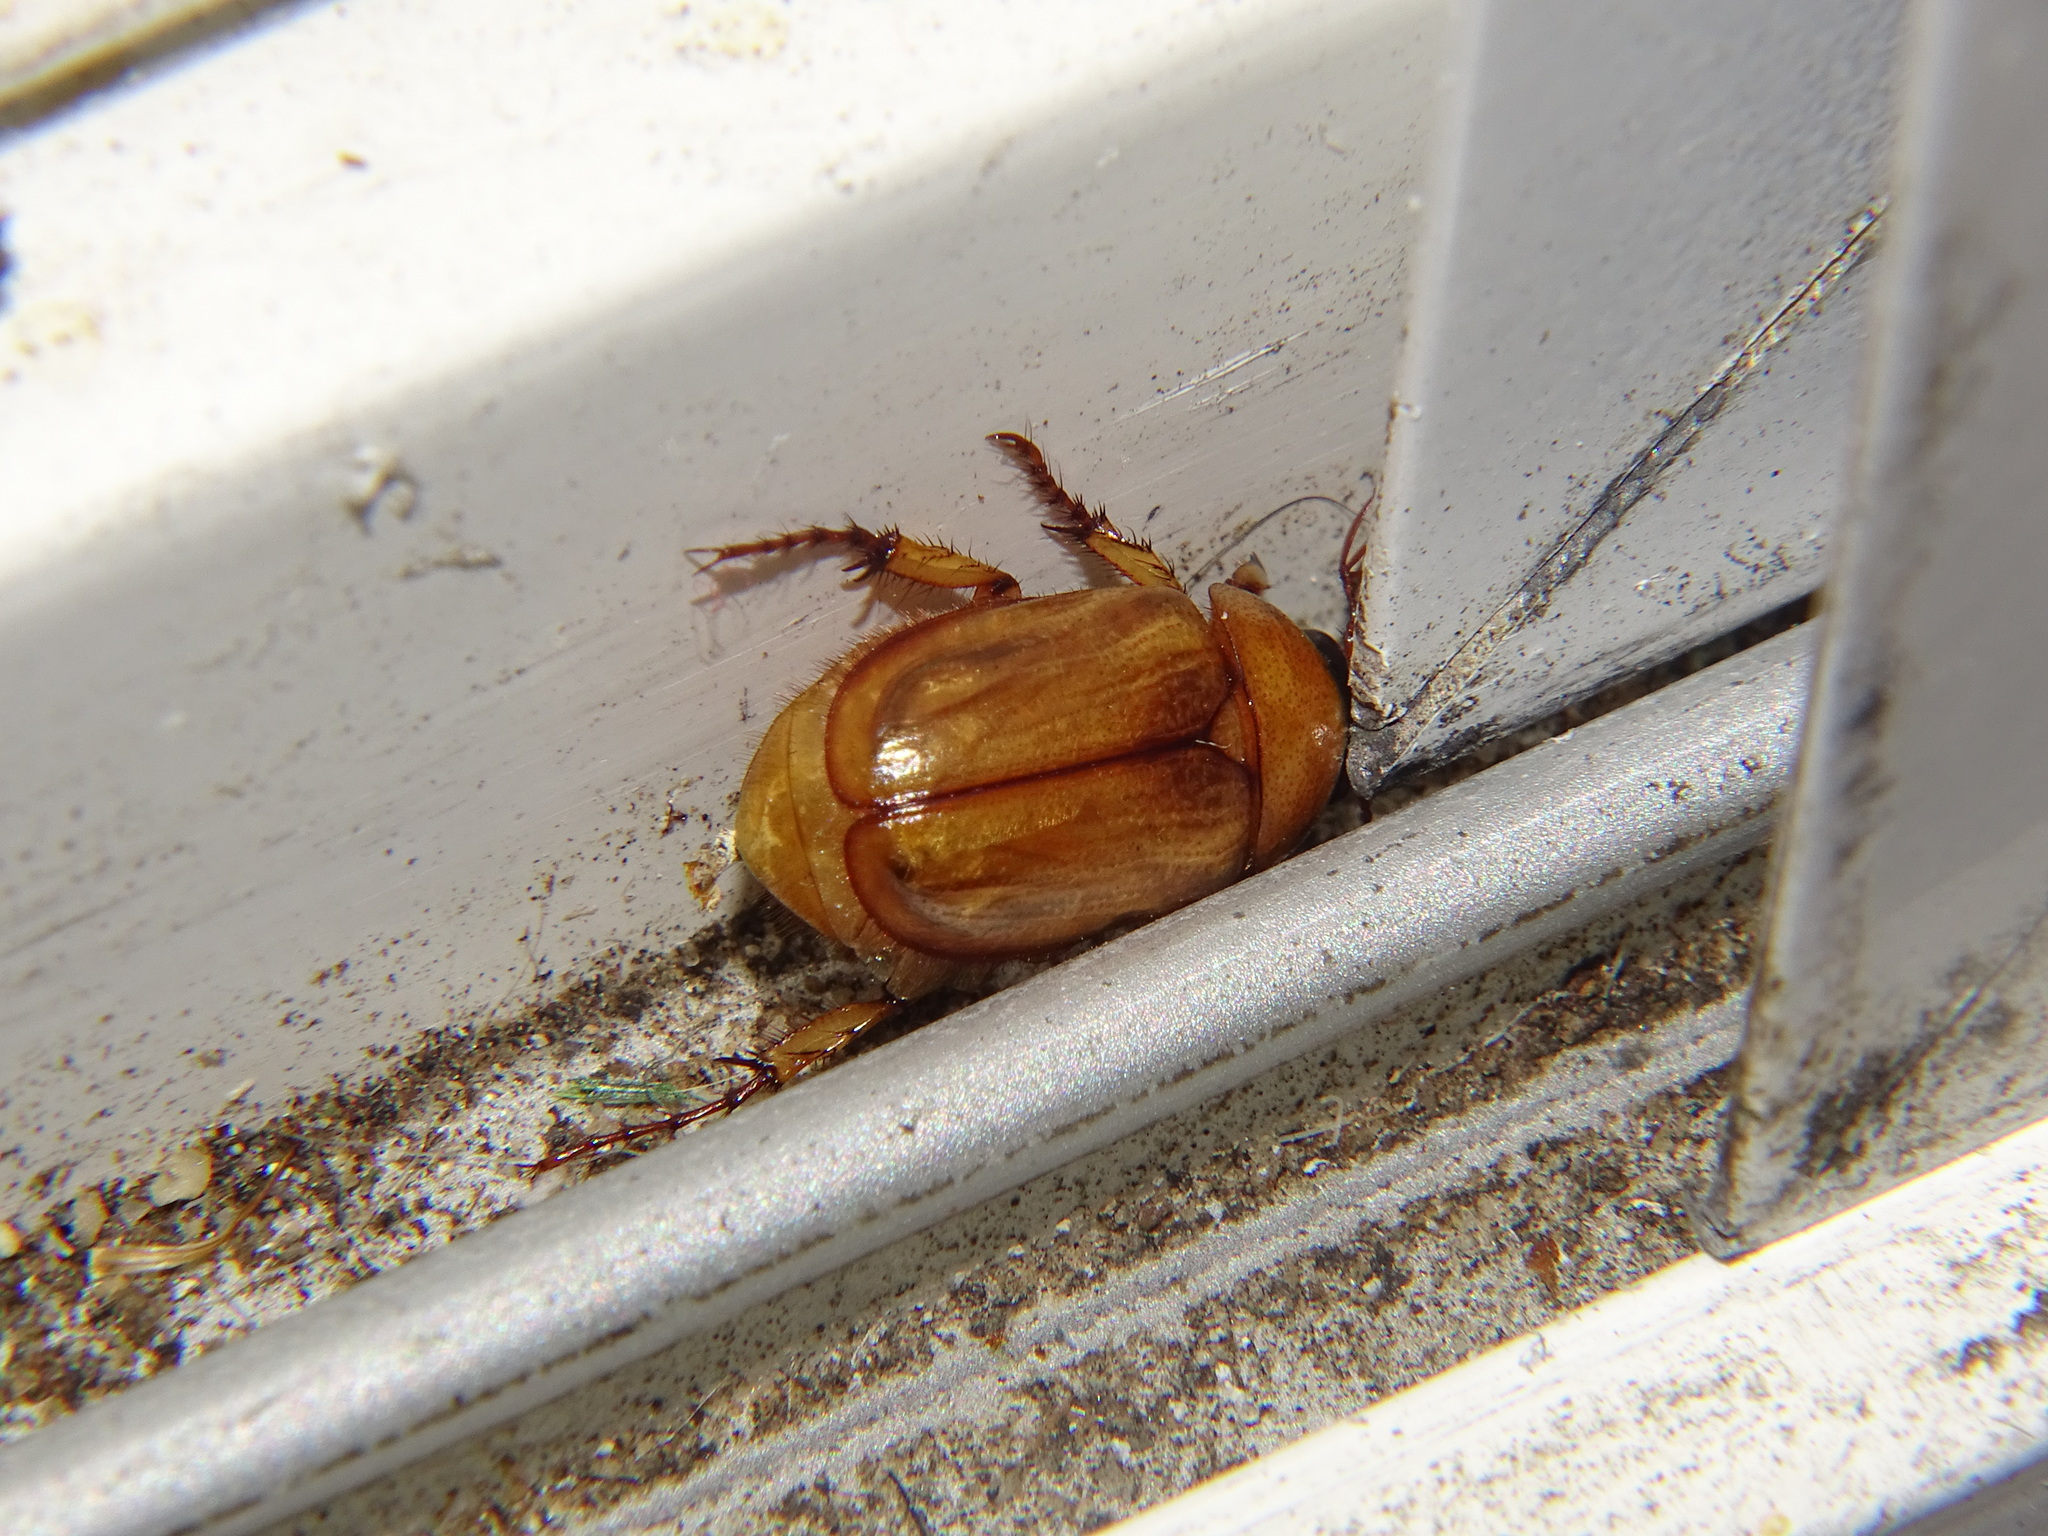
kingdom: Animalia
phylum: Arthropoda
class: Insecta
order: Coleoptera
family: Scarabaeidae
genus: Cyclocephala
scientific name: Cyclocephala pasadenae
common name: Pasadena masked chafer
